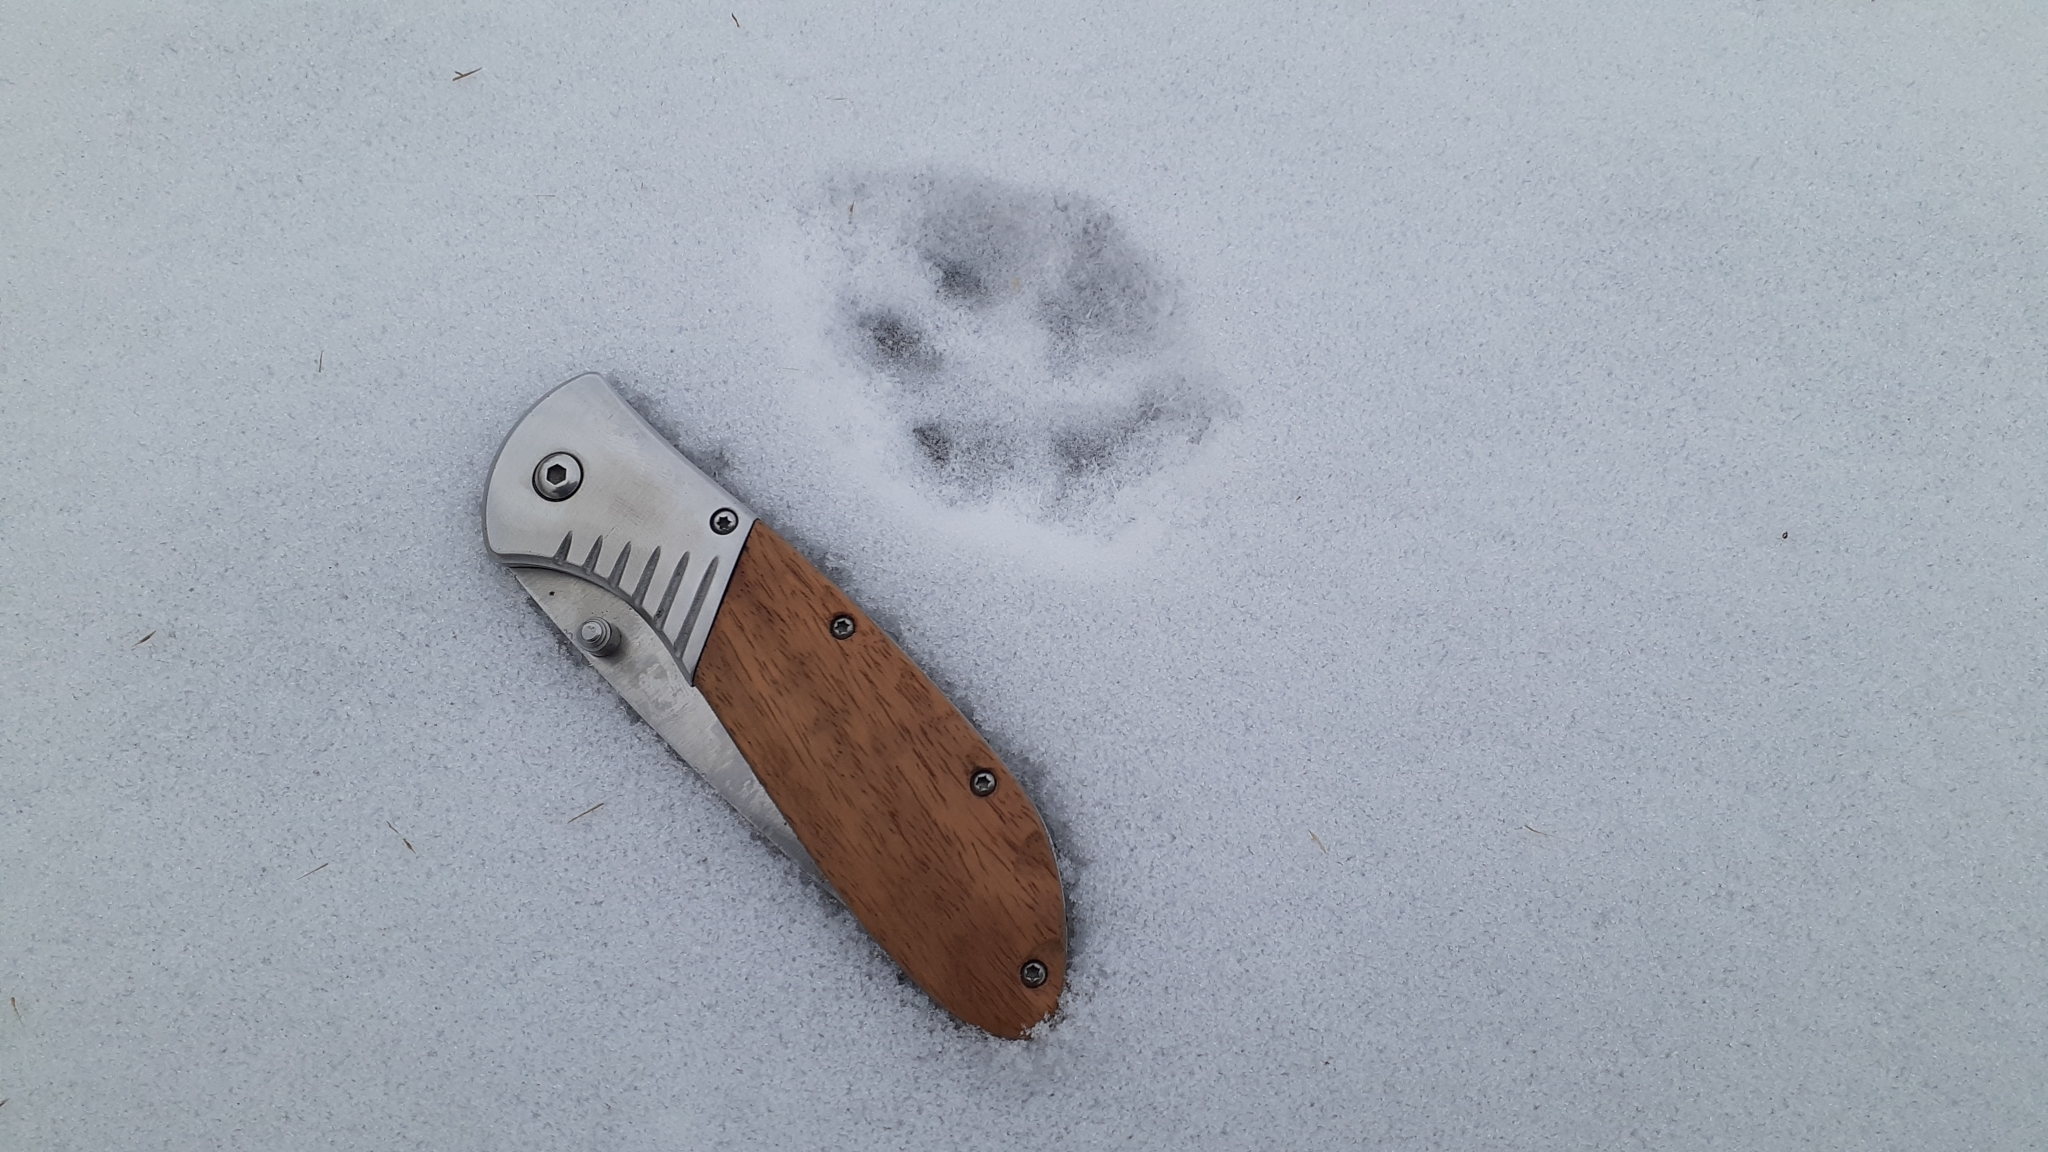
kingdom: Animalia
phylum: Chordata
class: Mammalia
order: Carnivora
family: Canidae
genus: Vulpes
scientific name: Vulpes vulpes
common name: Red fox
